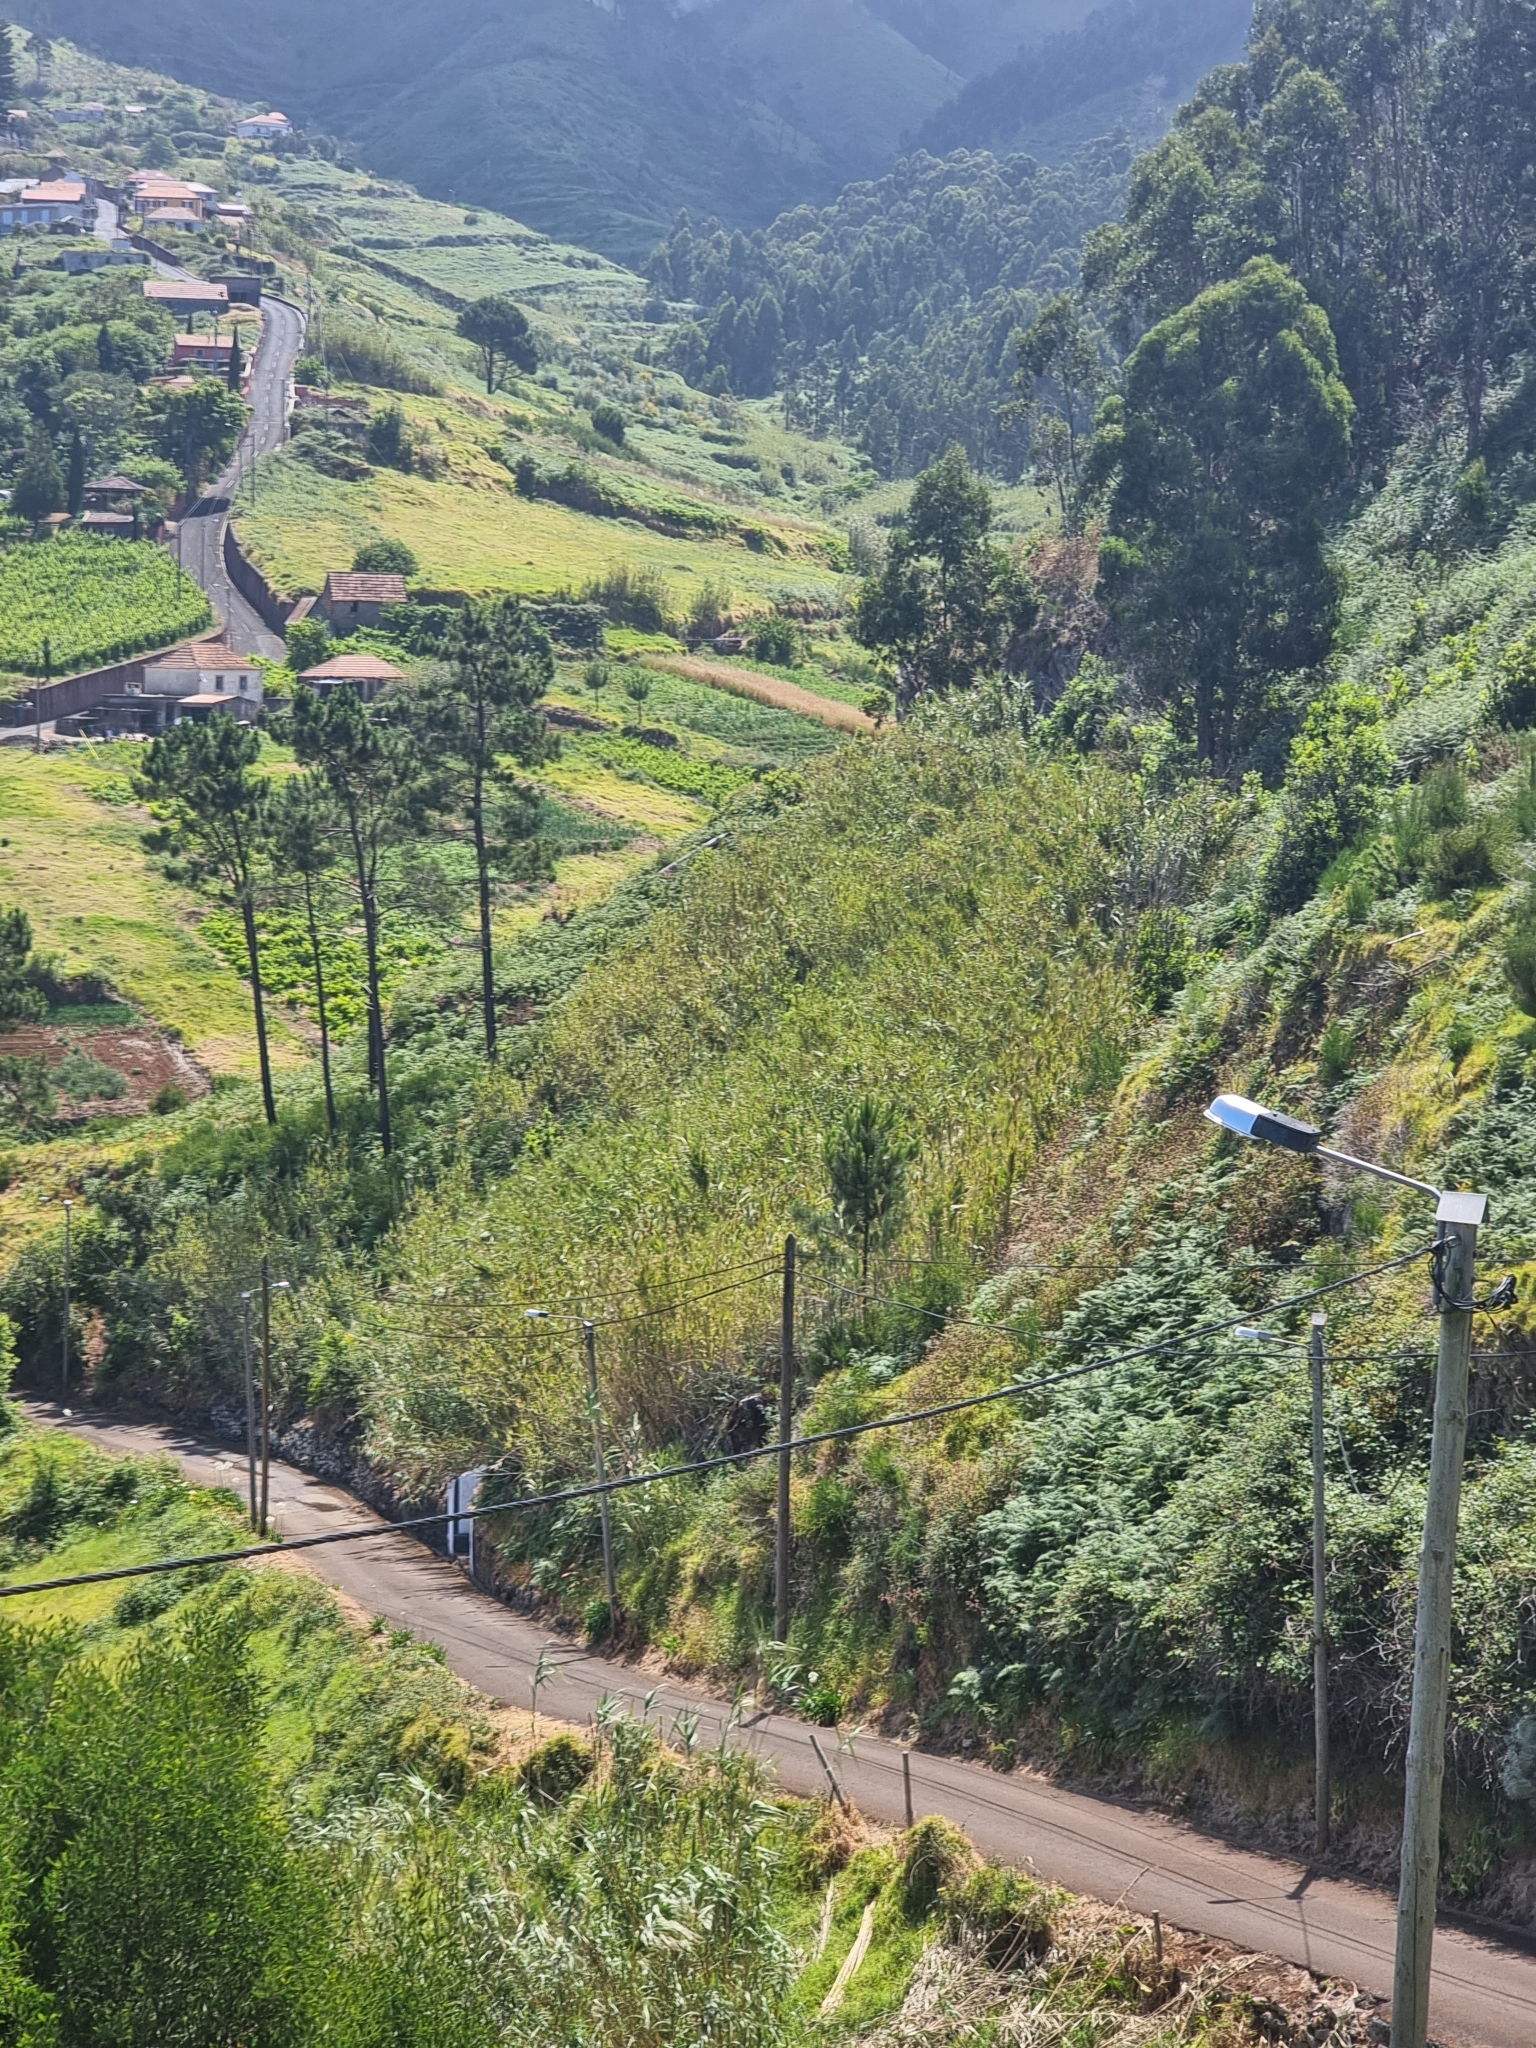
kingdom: Plantae
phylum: Tracheophyta
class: Liliopsida
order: Poales
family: Poaceae
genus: Arundo
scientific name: Arundo donax
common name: Giant reed
